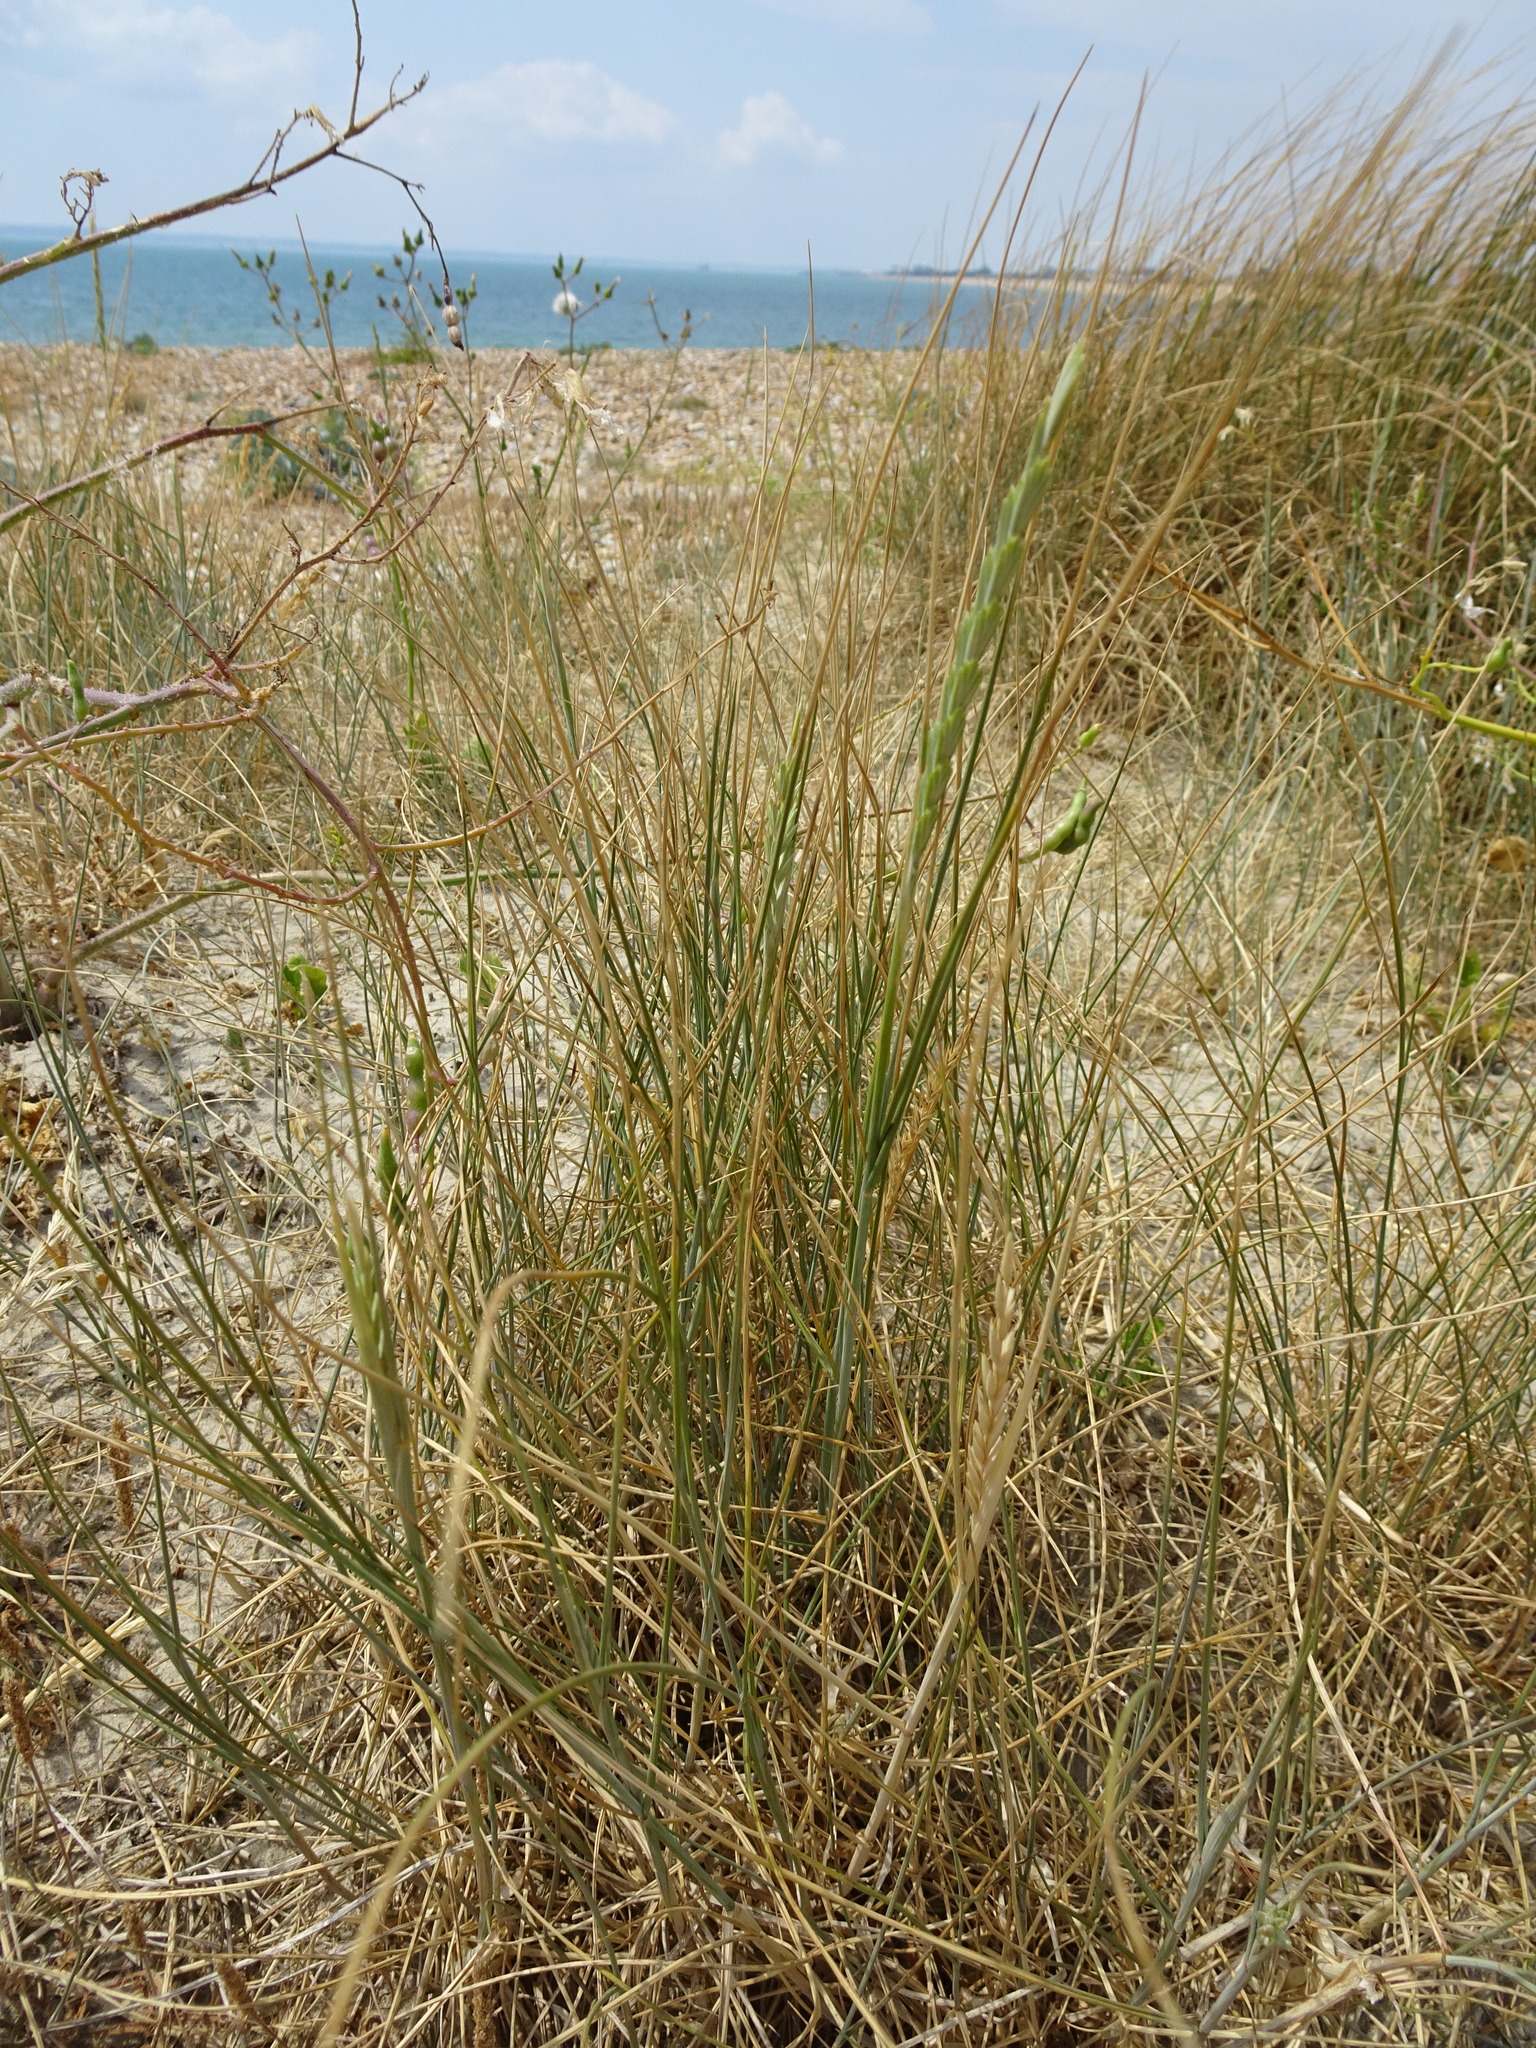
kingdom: Plantae
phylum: Tracheophyta
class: Liliopsida
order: Poales
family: Poaceae
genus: Thinopyrum
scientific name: Thinopyrum junceum
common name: Russian wheatgrass
